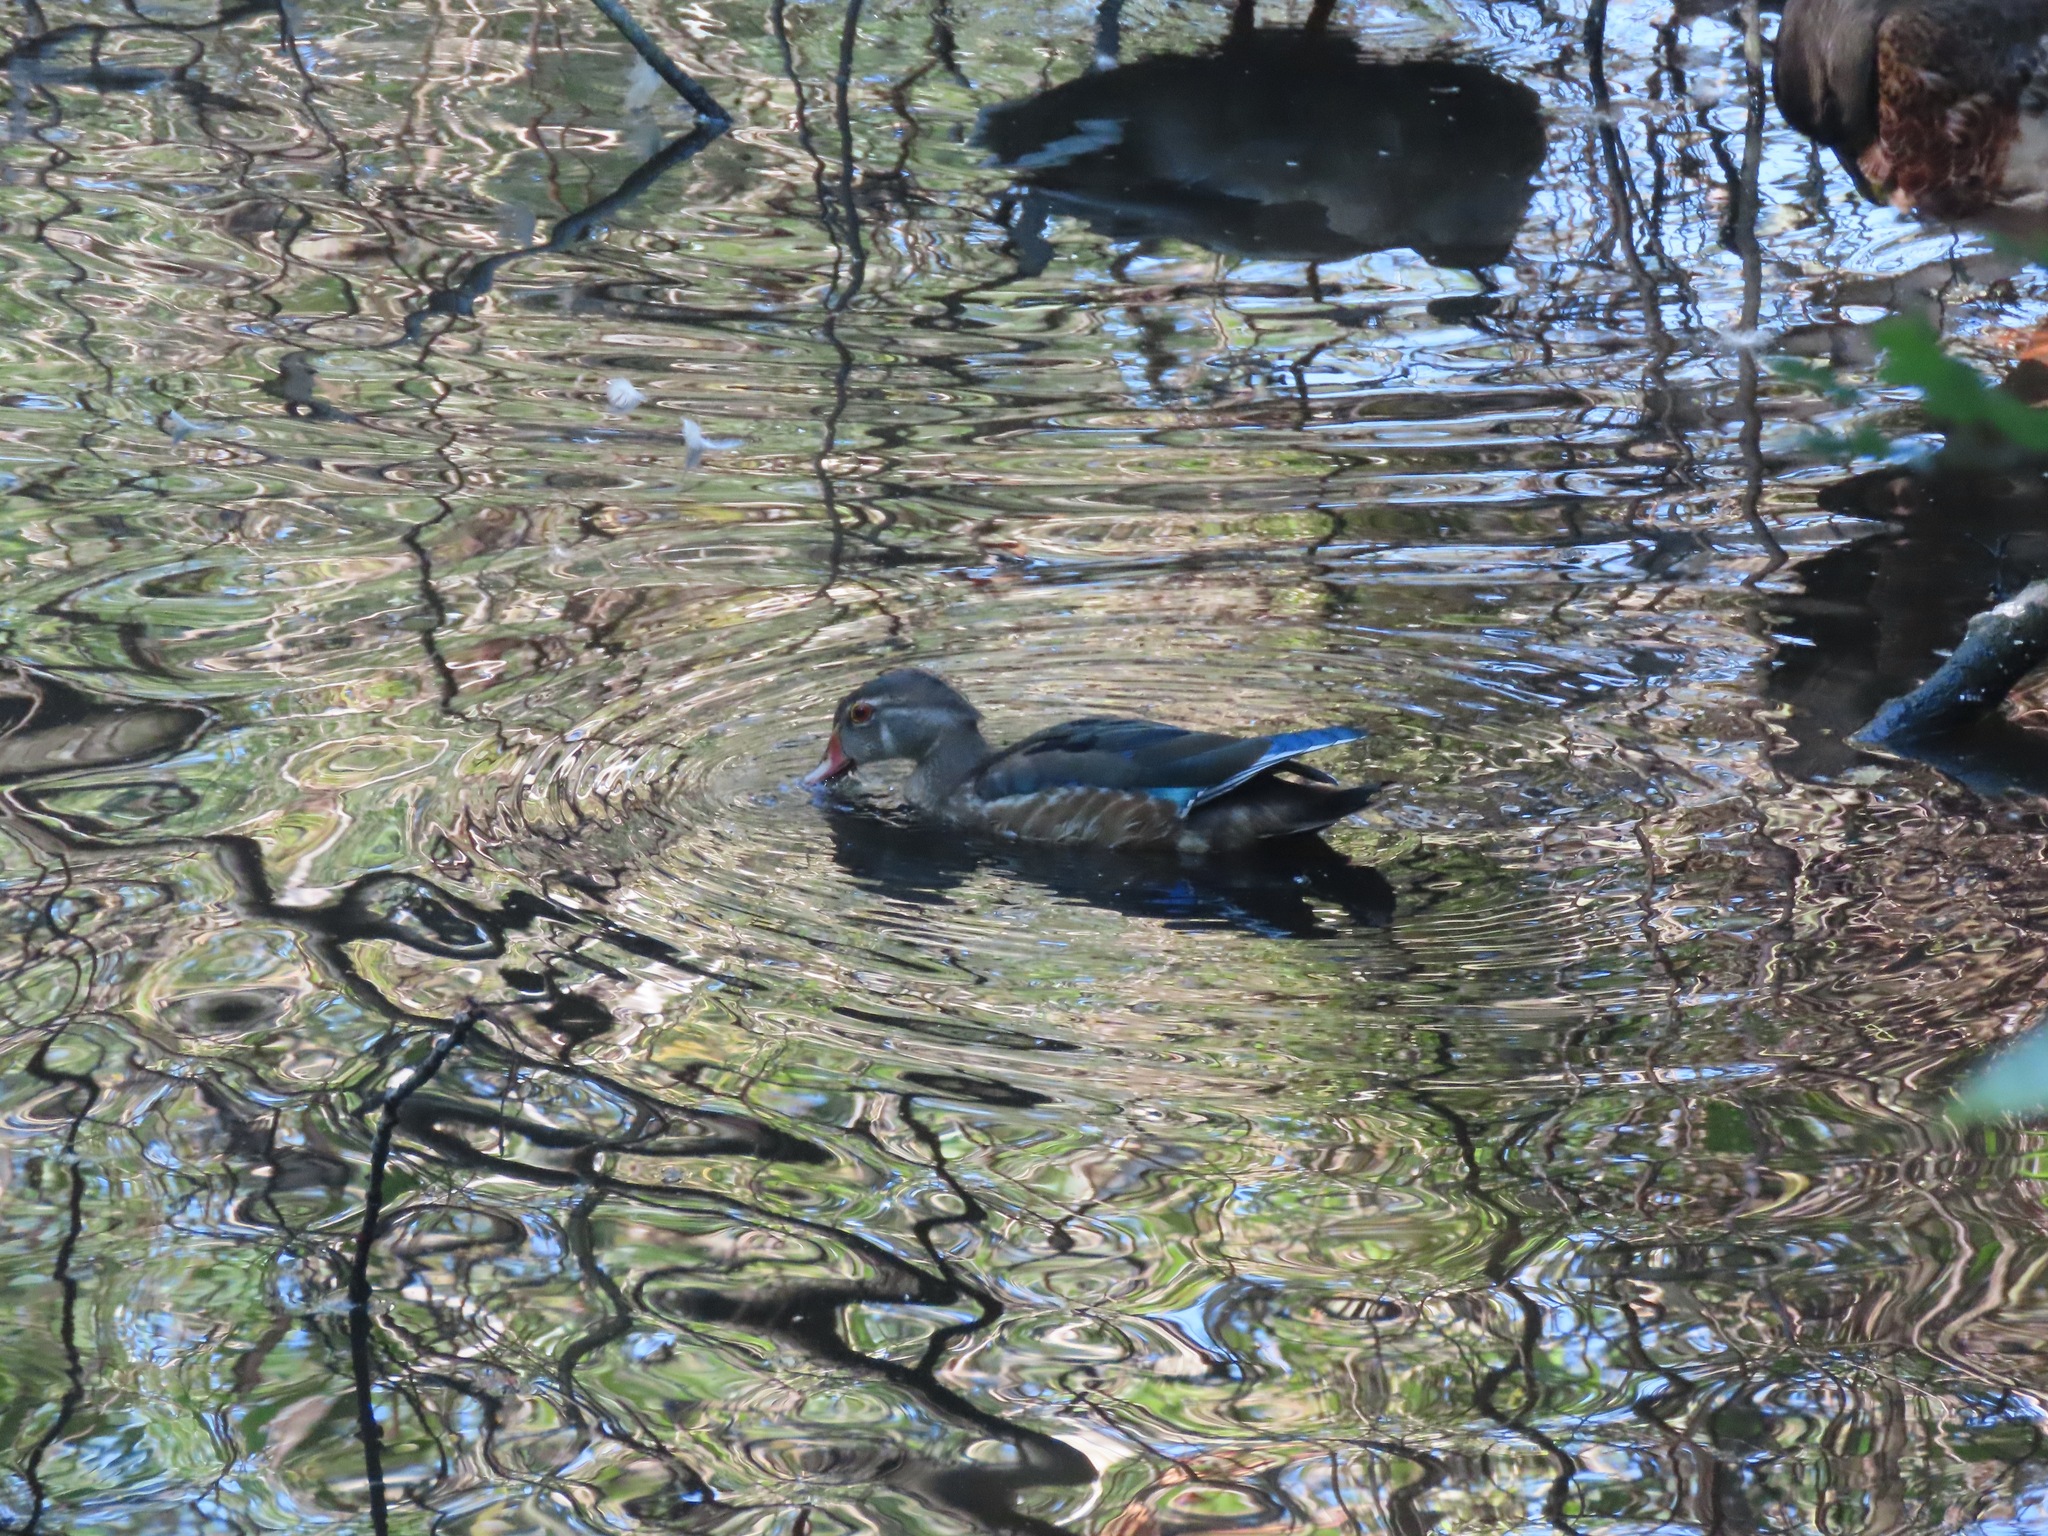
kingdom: Animalia
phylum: Chordata
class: Aves
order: Anseriformes
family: Anatidae
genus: Aix
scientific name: Aix sponsa
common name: Wood duck
